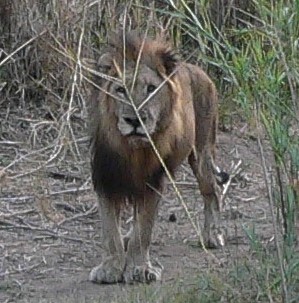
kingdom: Animalia
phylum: Chordata
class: Mammalia
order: Carnivora
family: Felidae
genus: Panthera
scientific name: Panthera leo
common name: Lion
